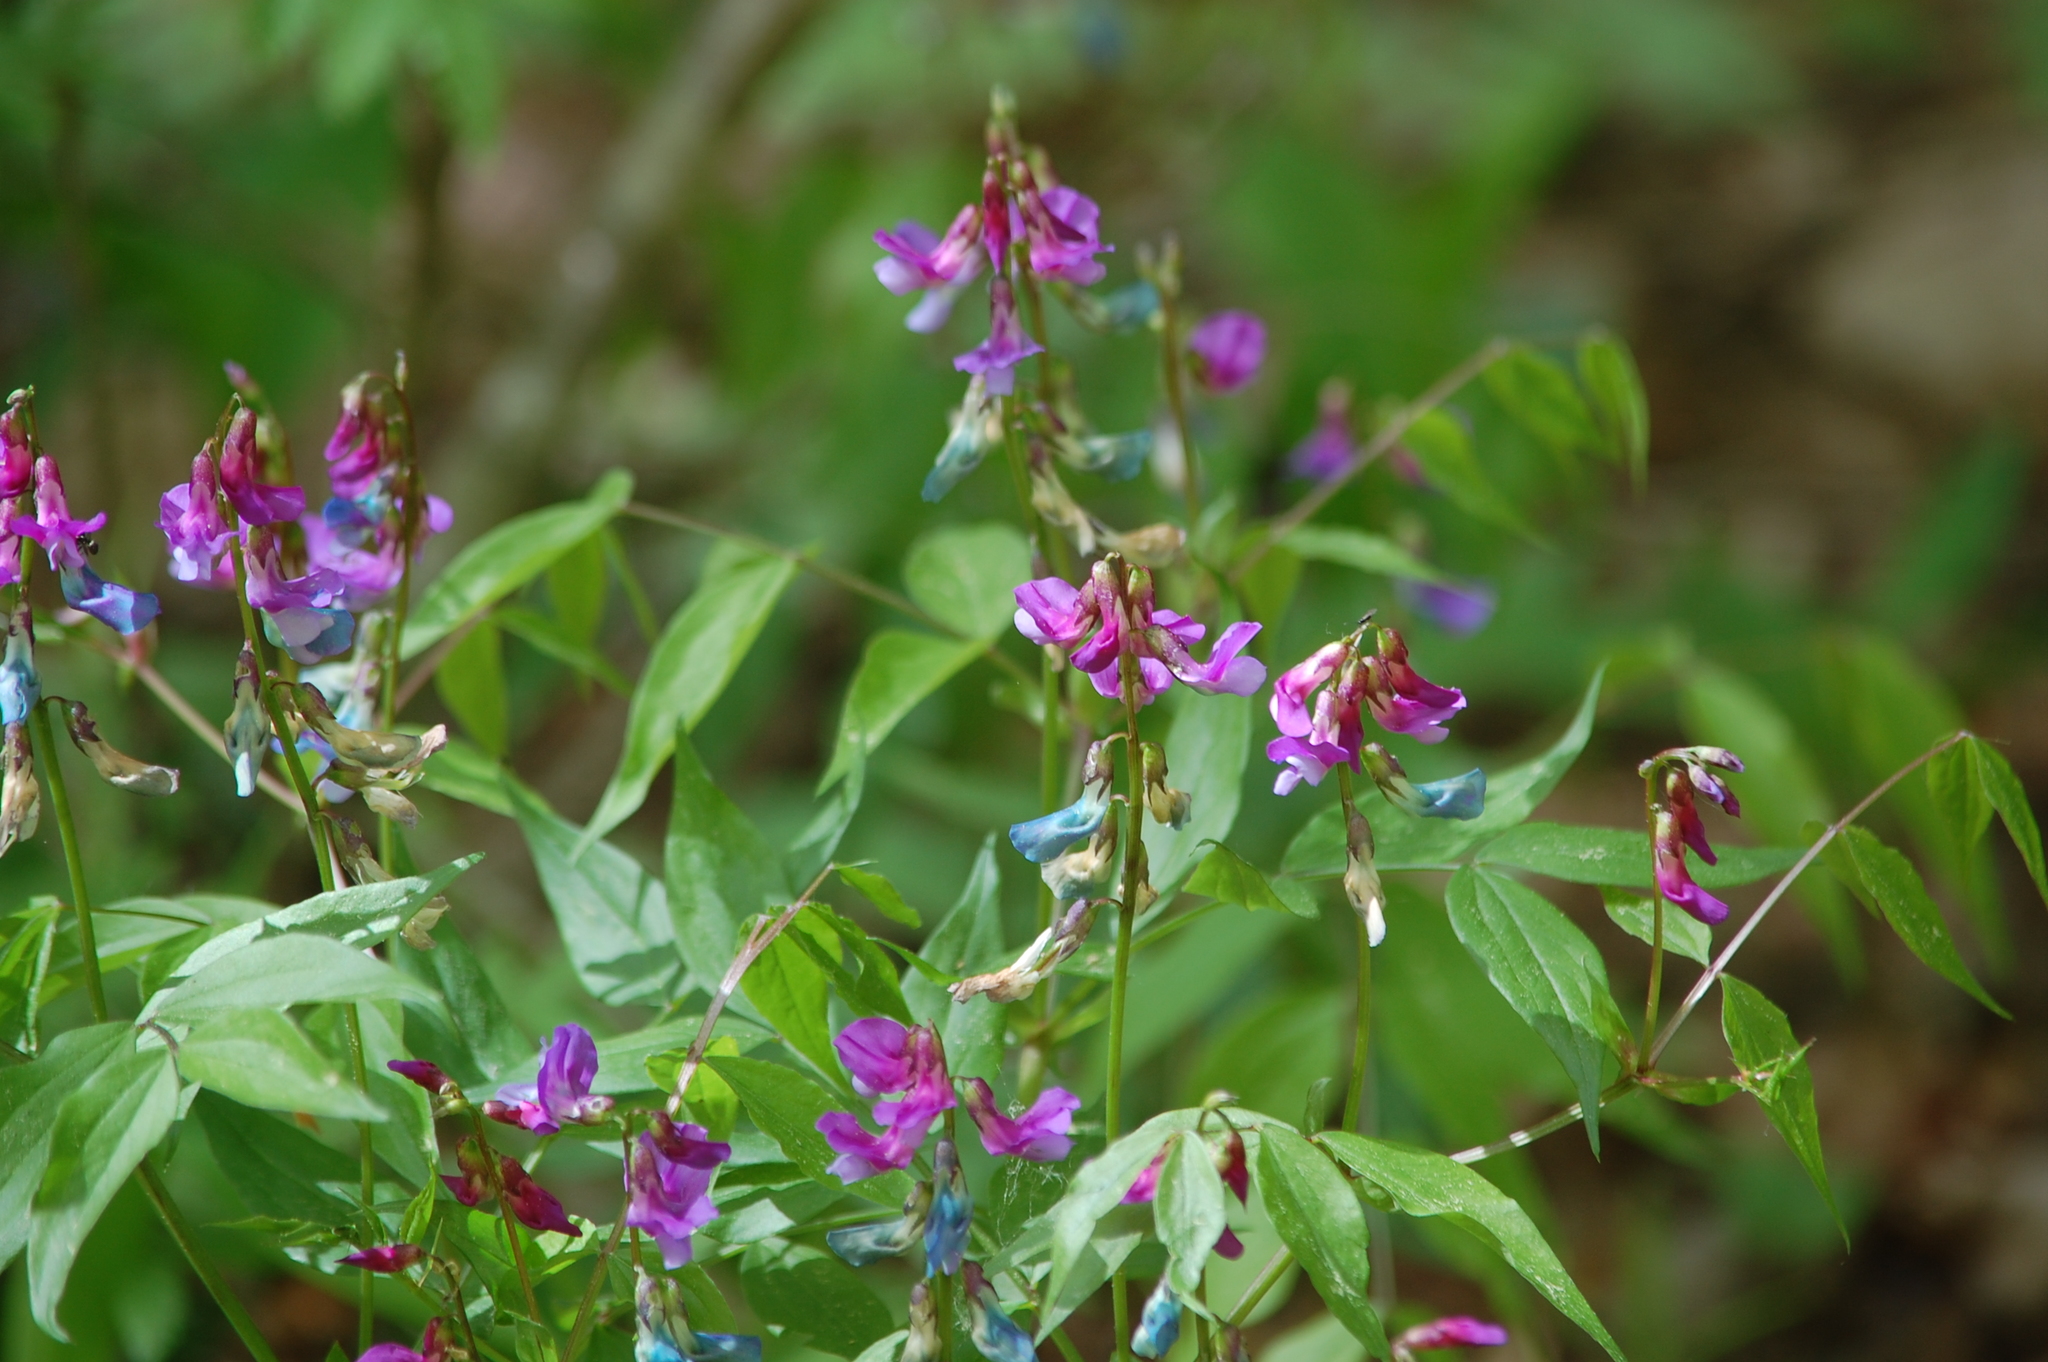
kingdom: Plantae
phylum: Tracheophyta
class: Magnoliopsida
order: Fabales
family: Fabaceae
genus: Lathyrus
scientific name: Lathyrus vernus
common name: Spring pea
